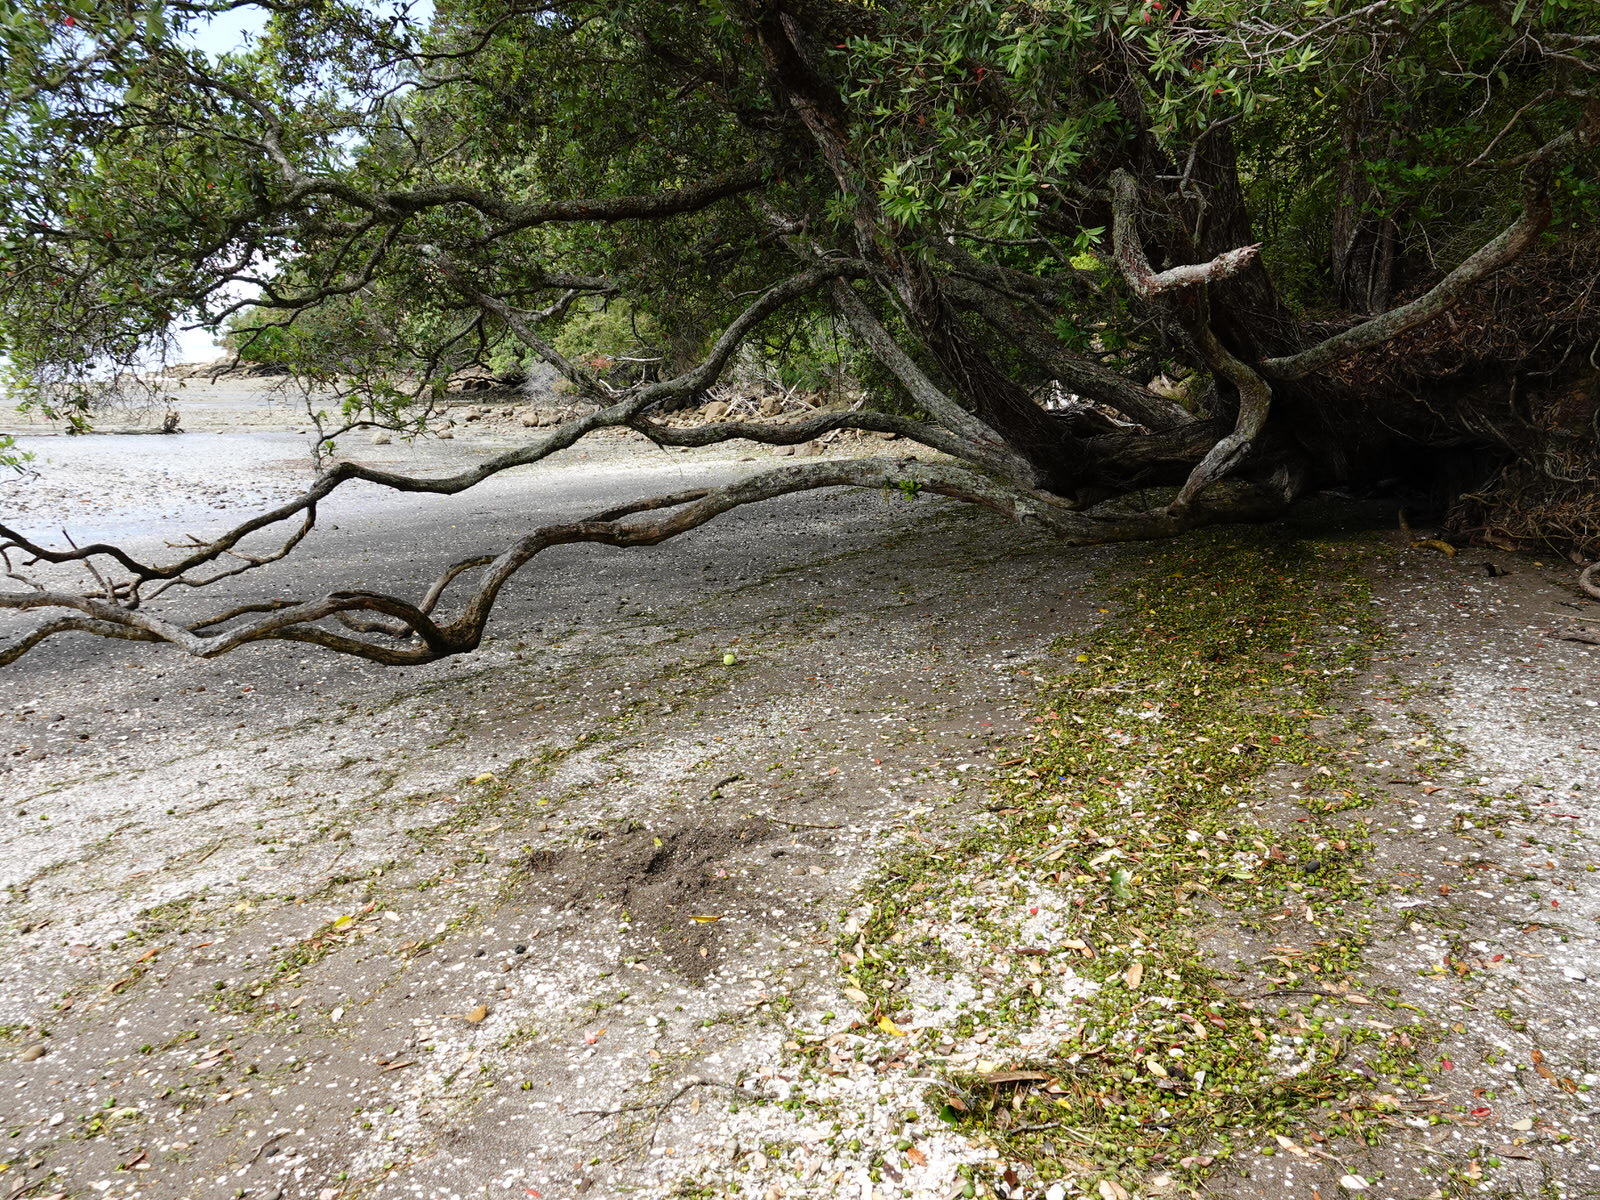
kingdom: Plantae
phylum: Tracheophyta
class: Magnoliopsida
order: Lamiales
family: Acanthaceae
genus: Avicennia
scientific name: Avicennia marina
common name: Gray mangrove
